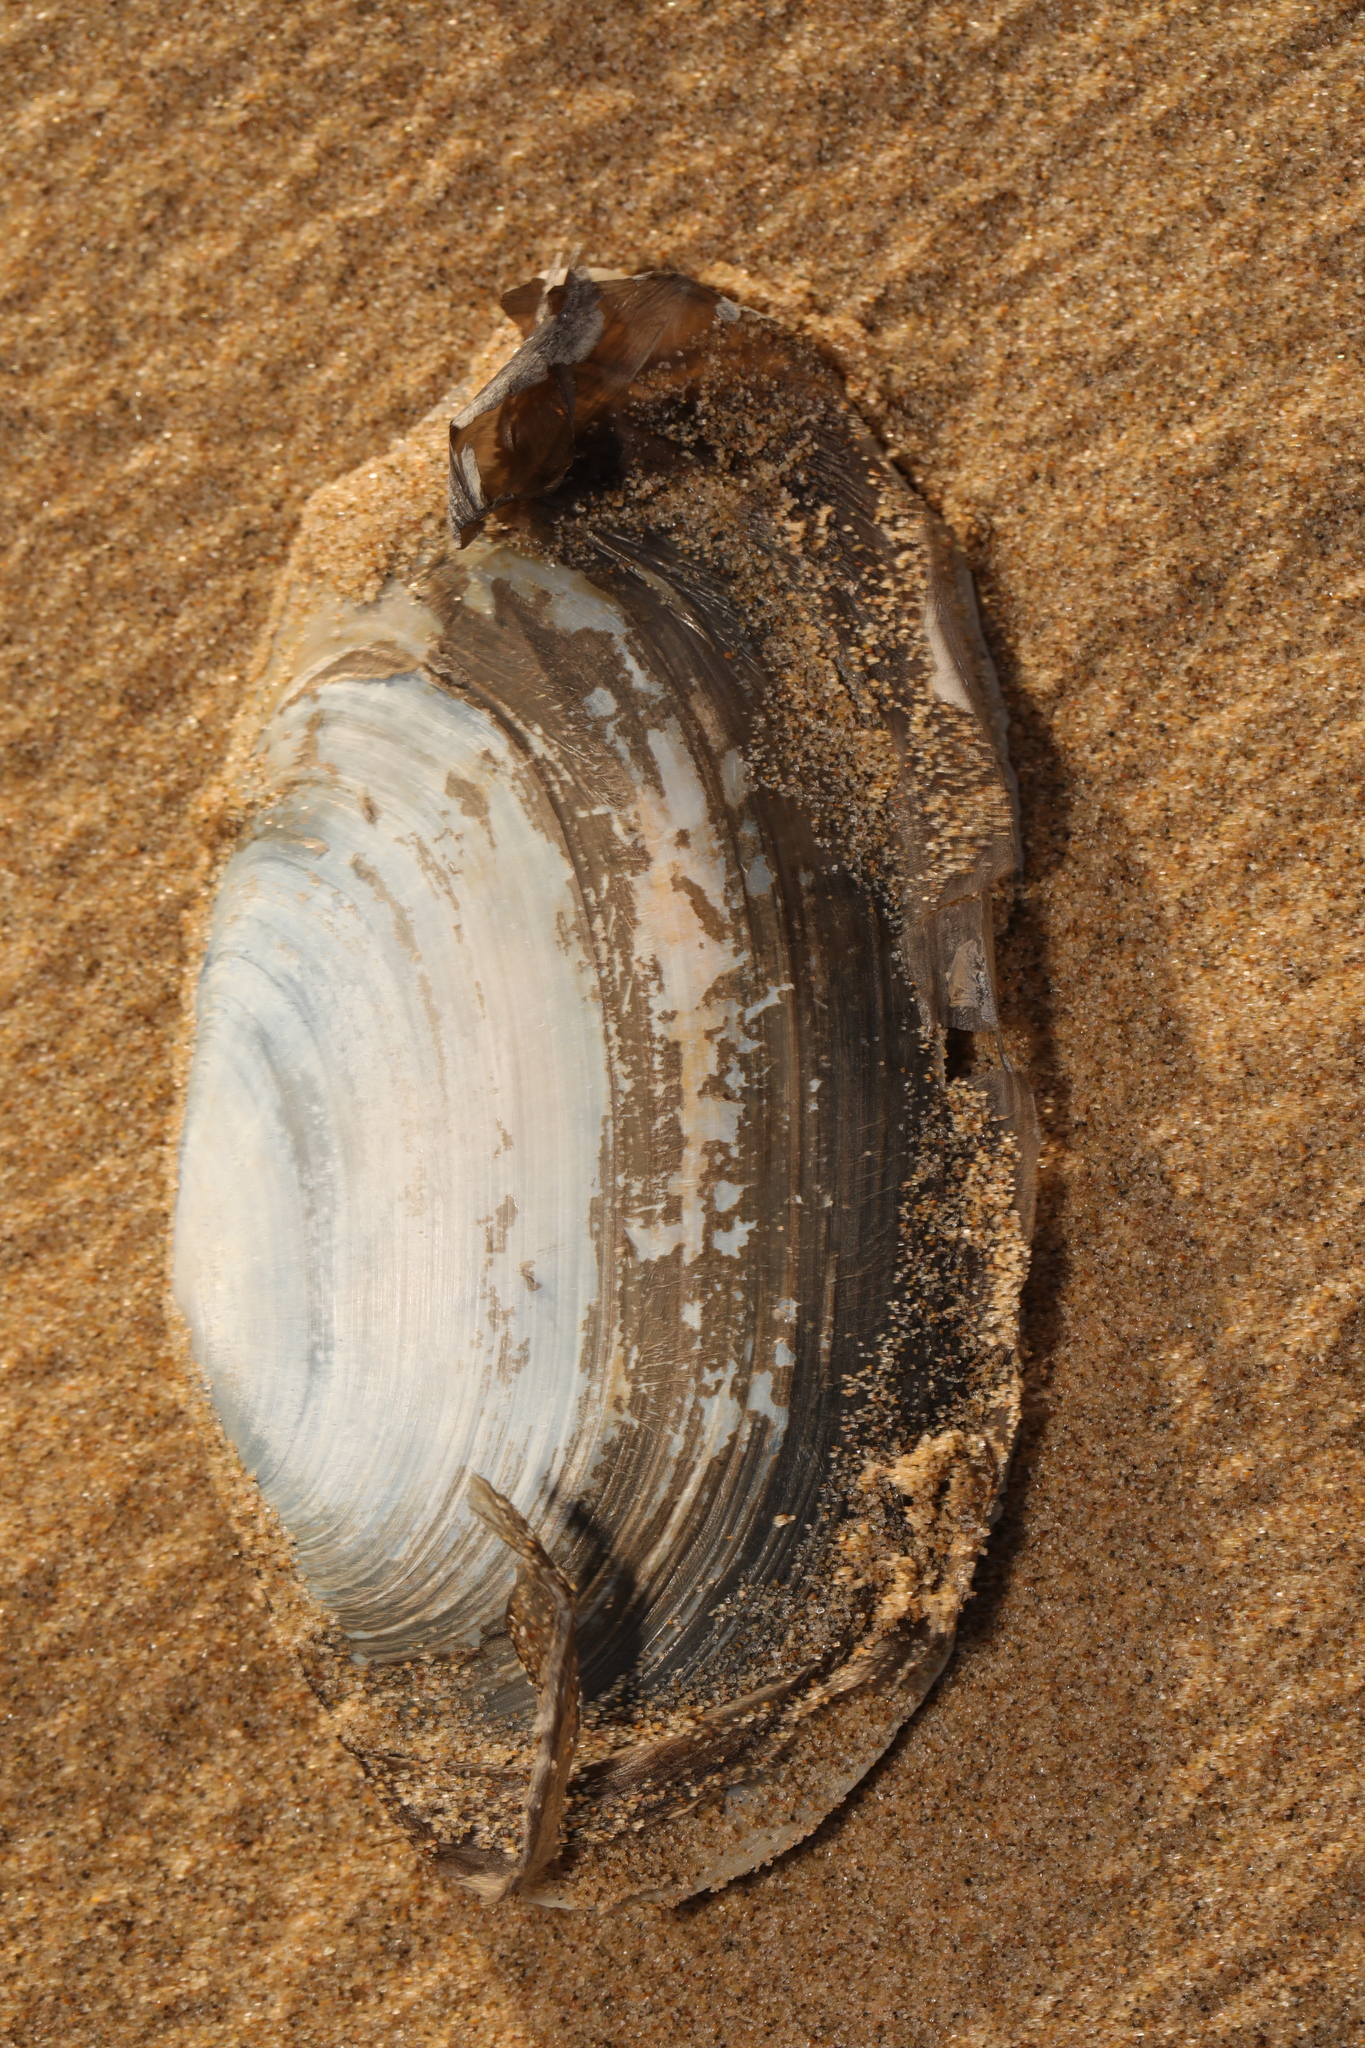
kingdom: Animalia
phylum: Mollusca
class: Bivalvia
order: Venerida
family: Mactridae
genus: Lutraria
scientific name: Lutraria lutraria
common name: Common otter shell
